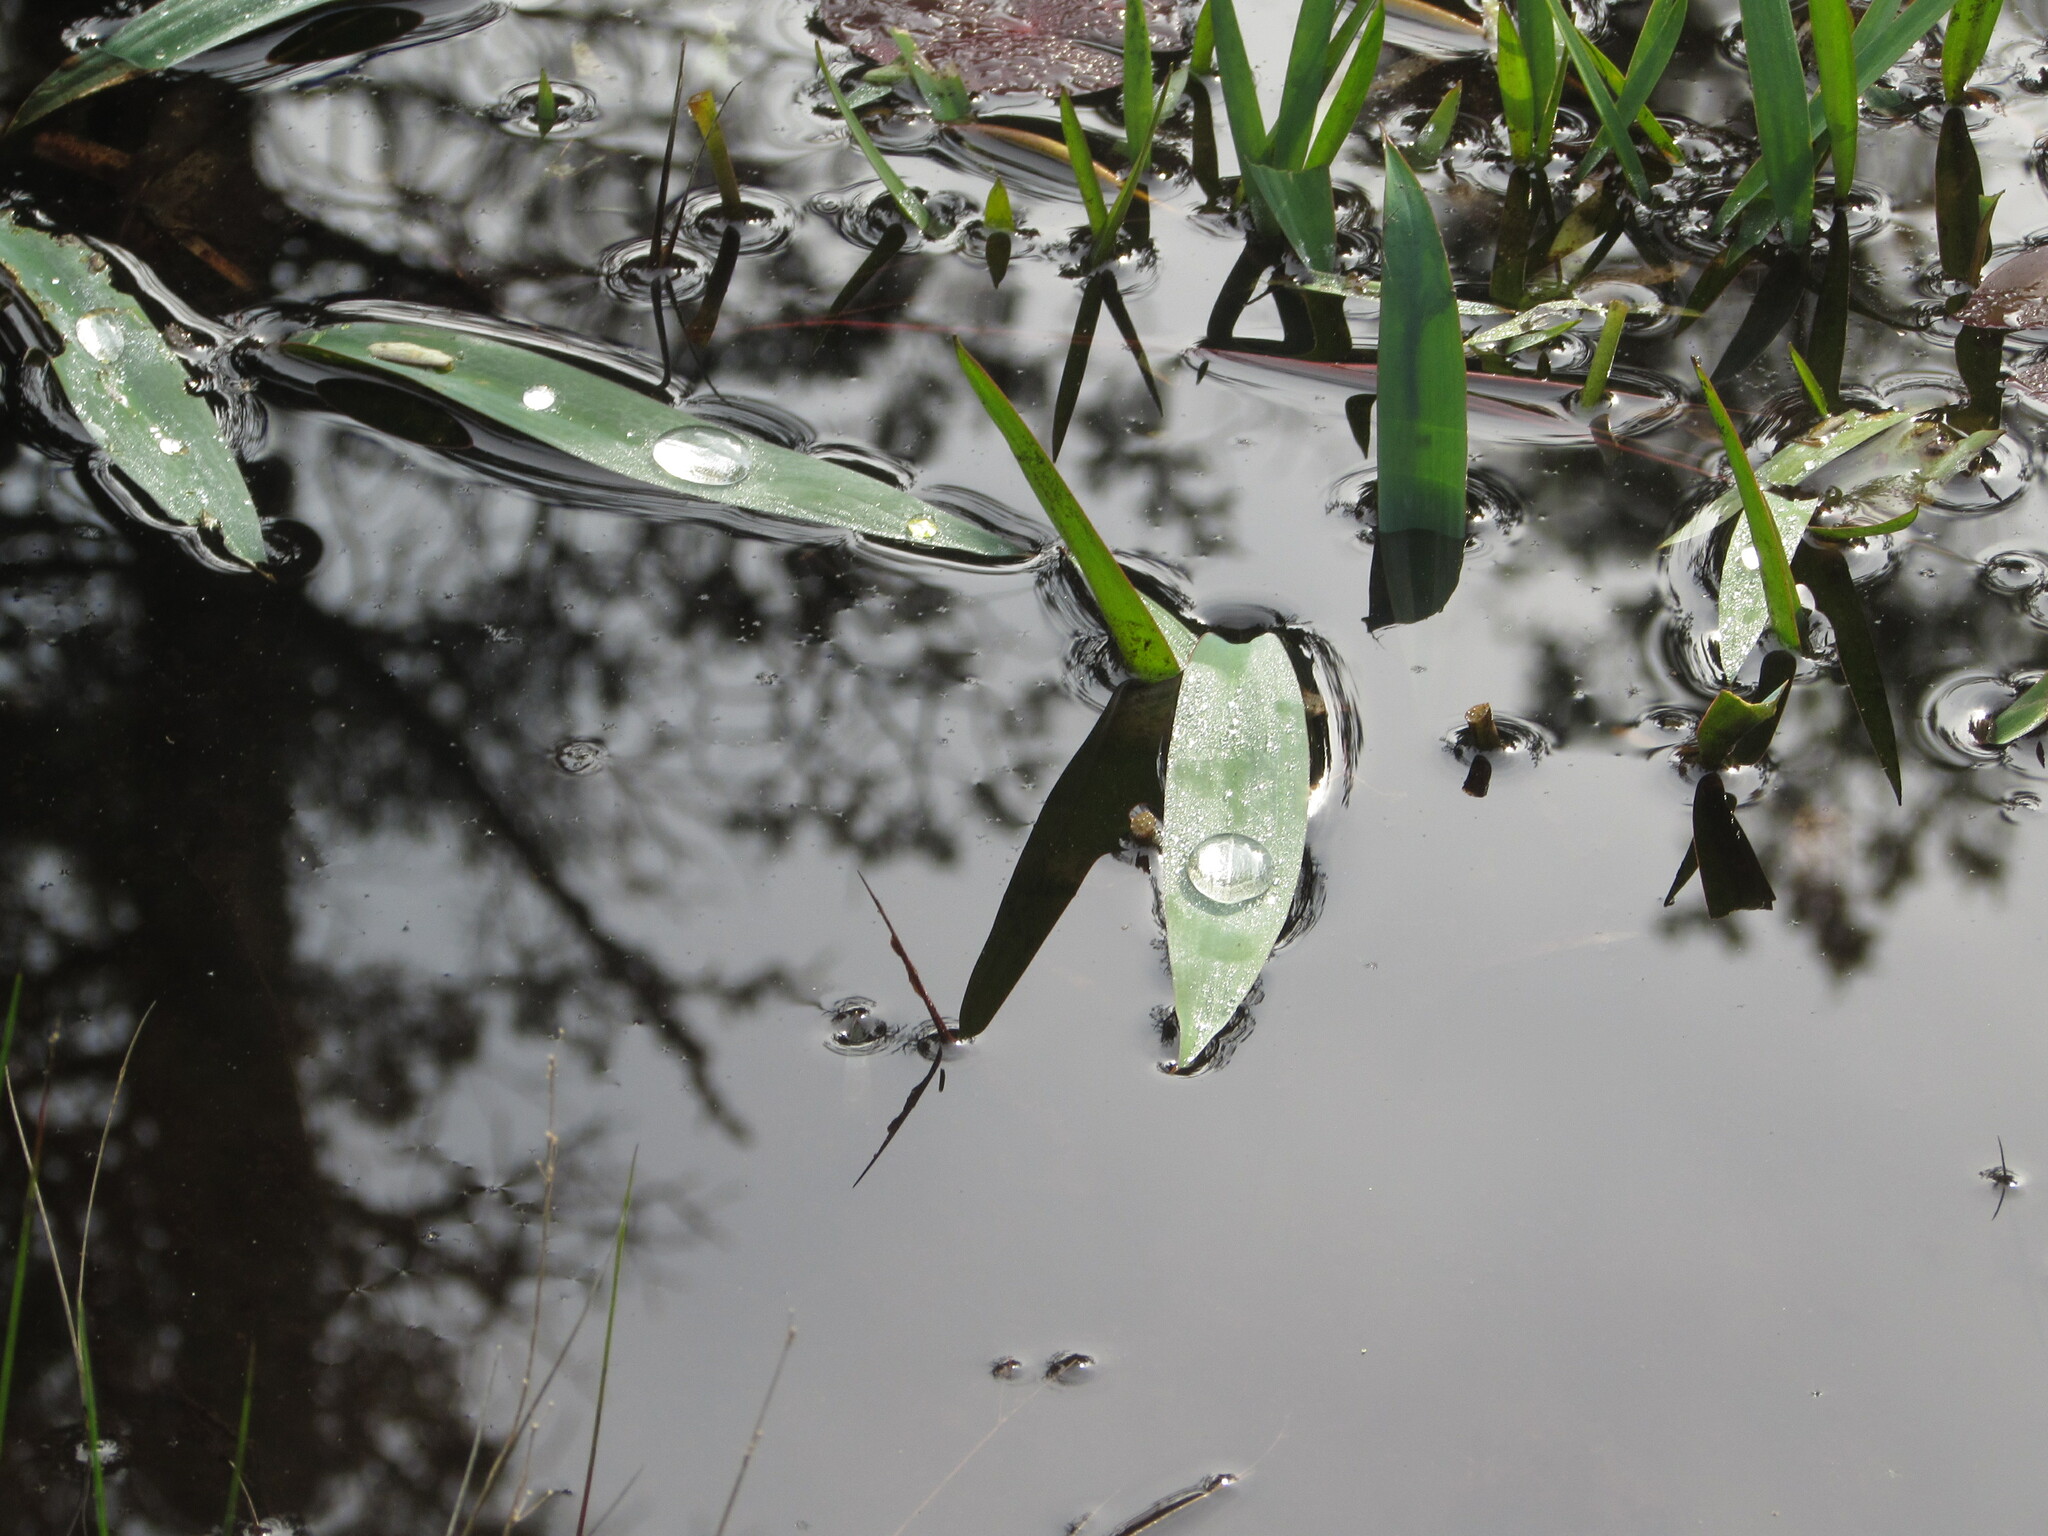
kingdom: Plantae
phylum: Tracheophyta
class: Liliopsida
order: Alismatales
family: Araceae
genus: Orontium
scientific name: Orontium aquaticum
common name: Golden-club
